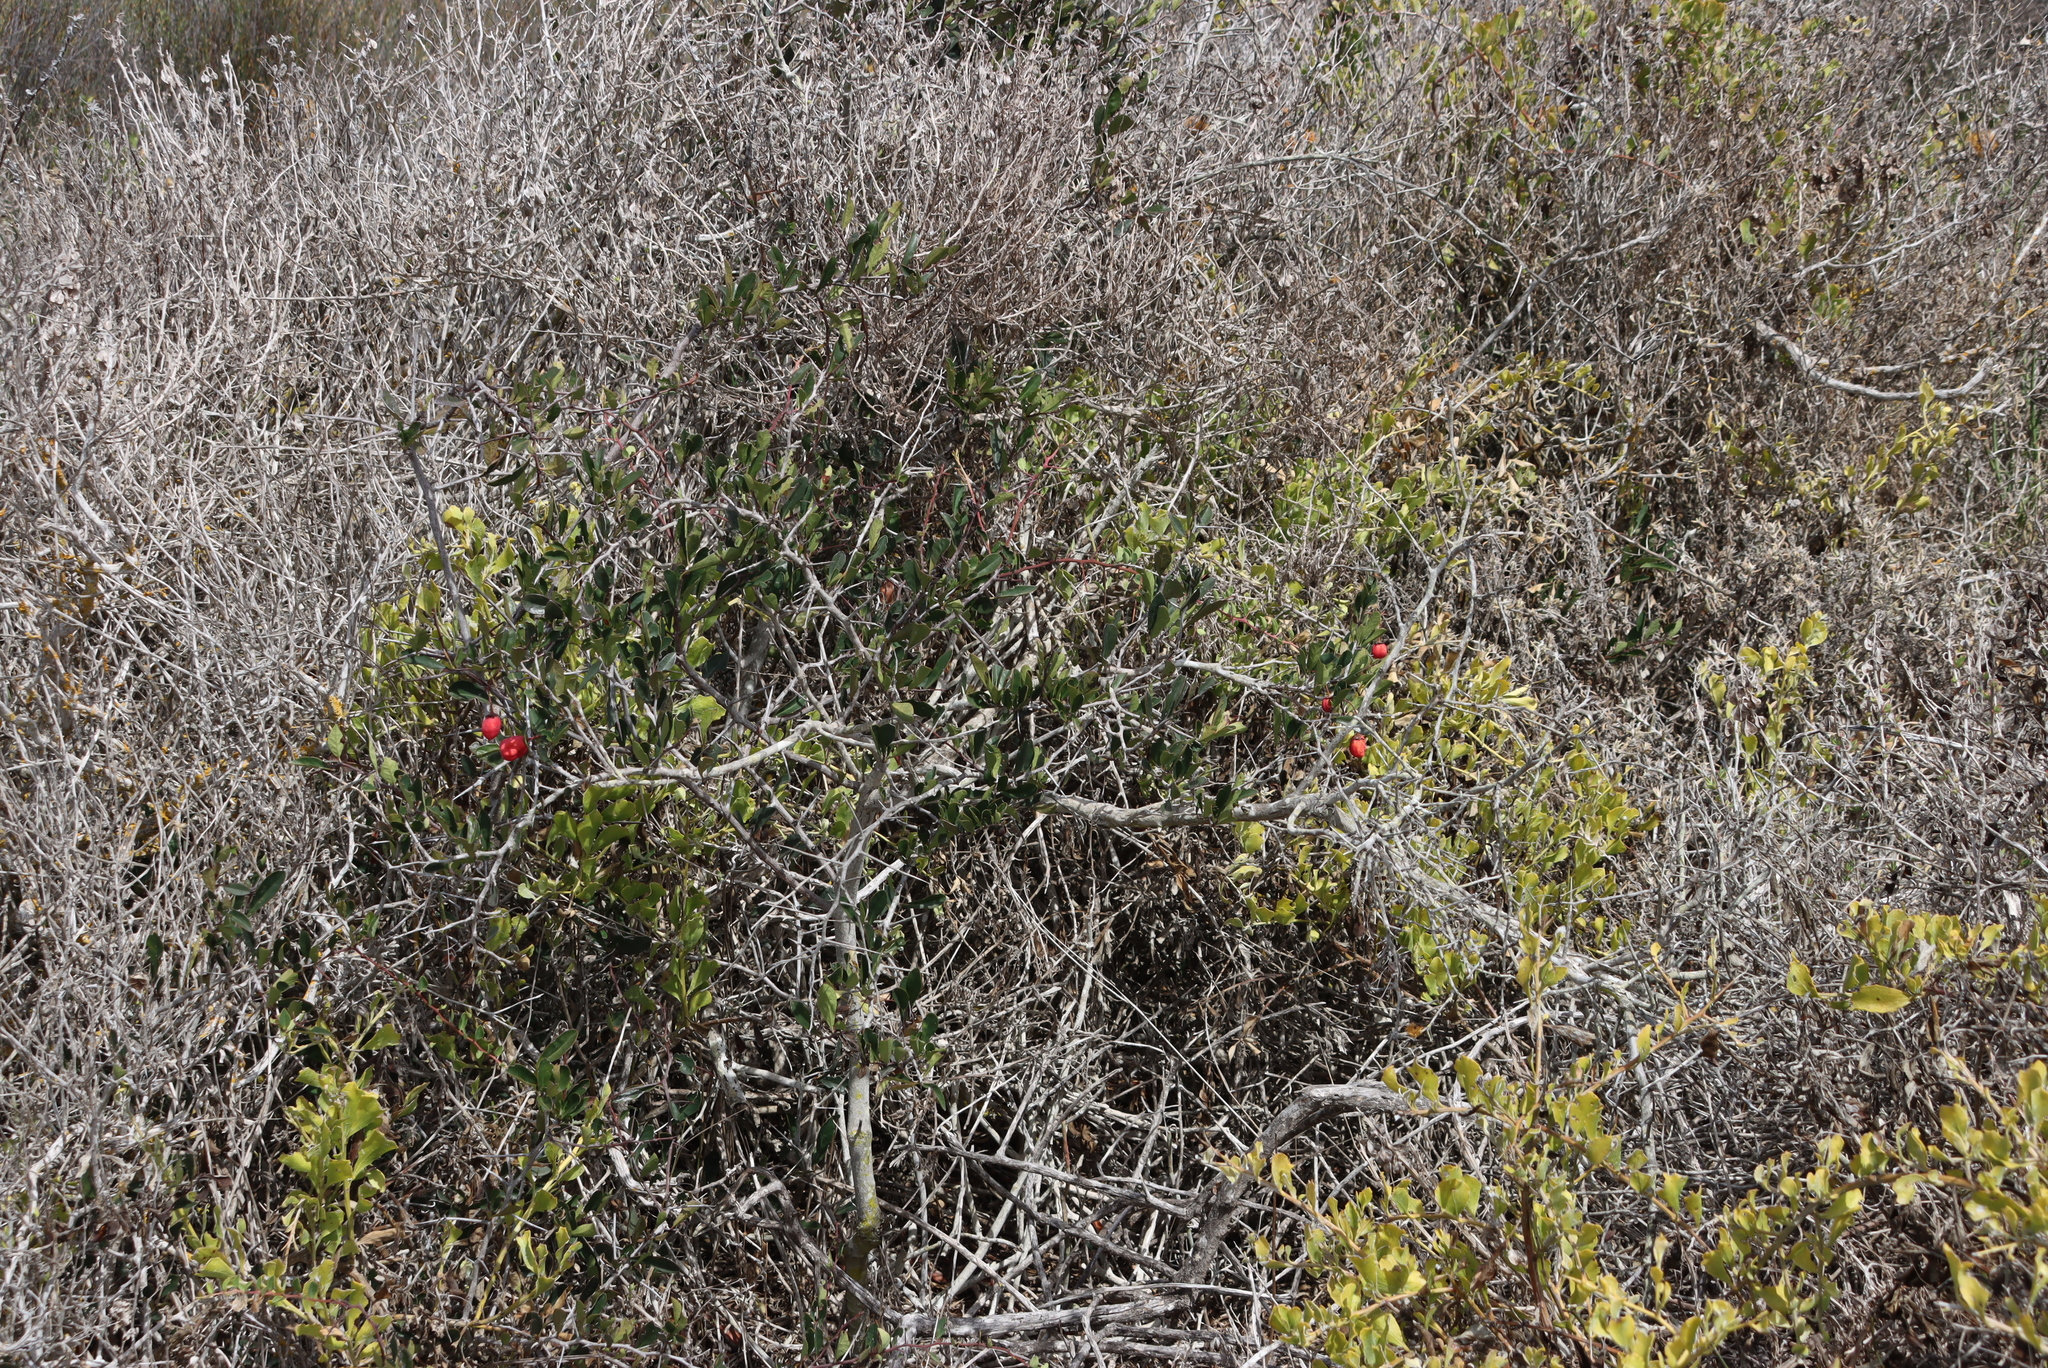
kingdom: Plantae
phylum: Tracheophyta
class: Magnoliopsida
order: Celastrales
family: Celastraceae
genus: Putterlickia
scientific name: Putterlickia pyracantha
